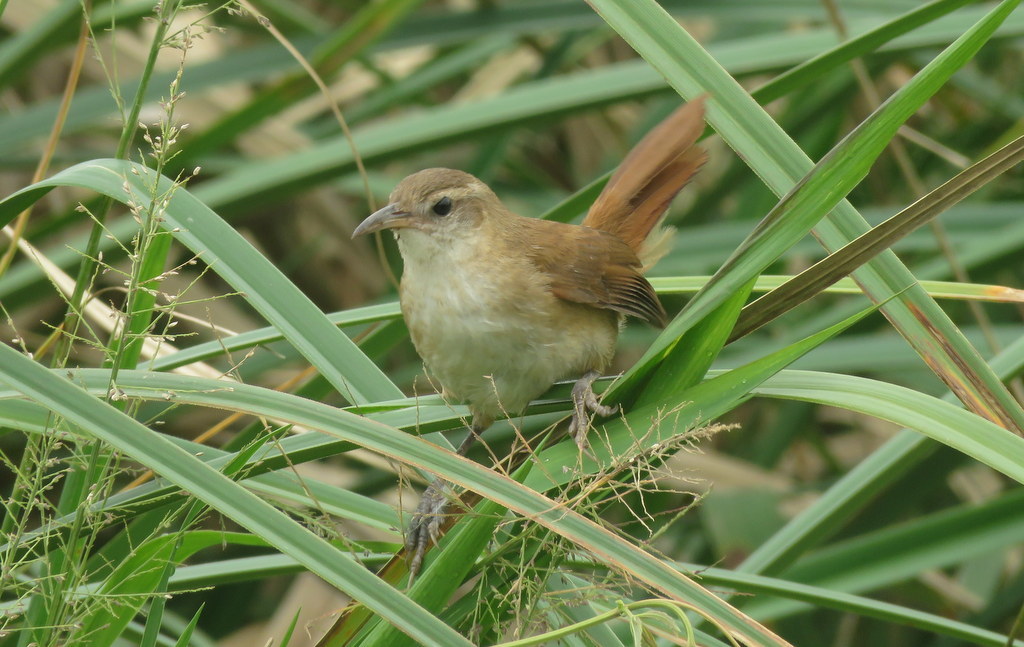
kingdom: Animalia
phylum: Chordata
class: Aves
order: Passeriformes
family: Furnariidae
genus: Limnornis
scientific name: Limnornis curvirostris
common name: Curve-billed reedhaunter
